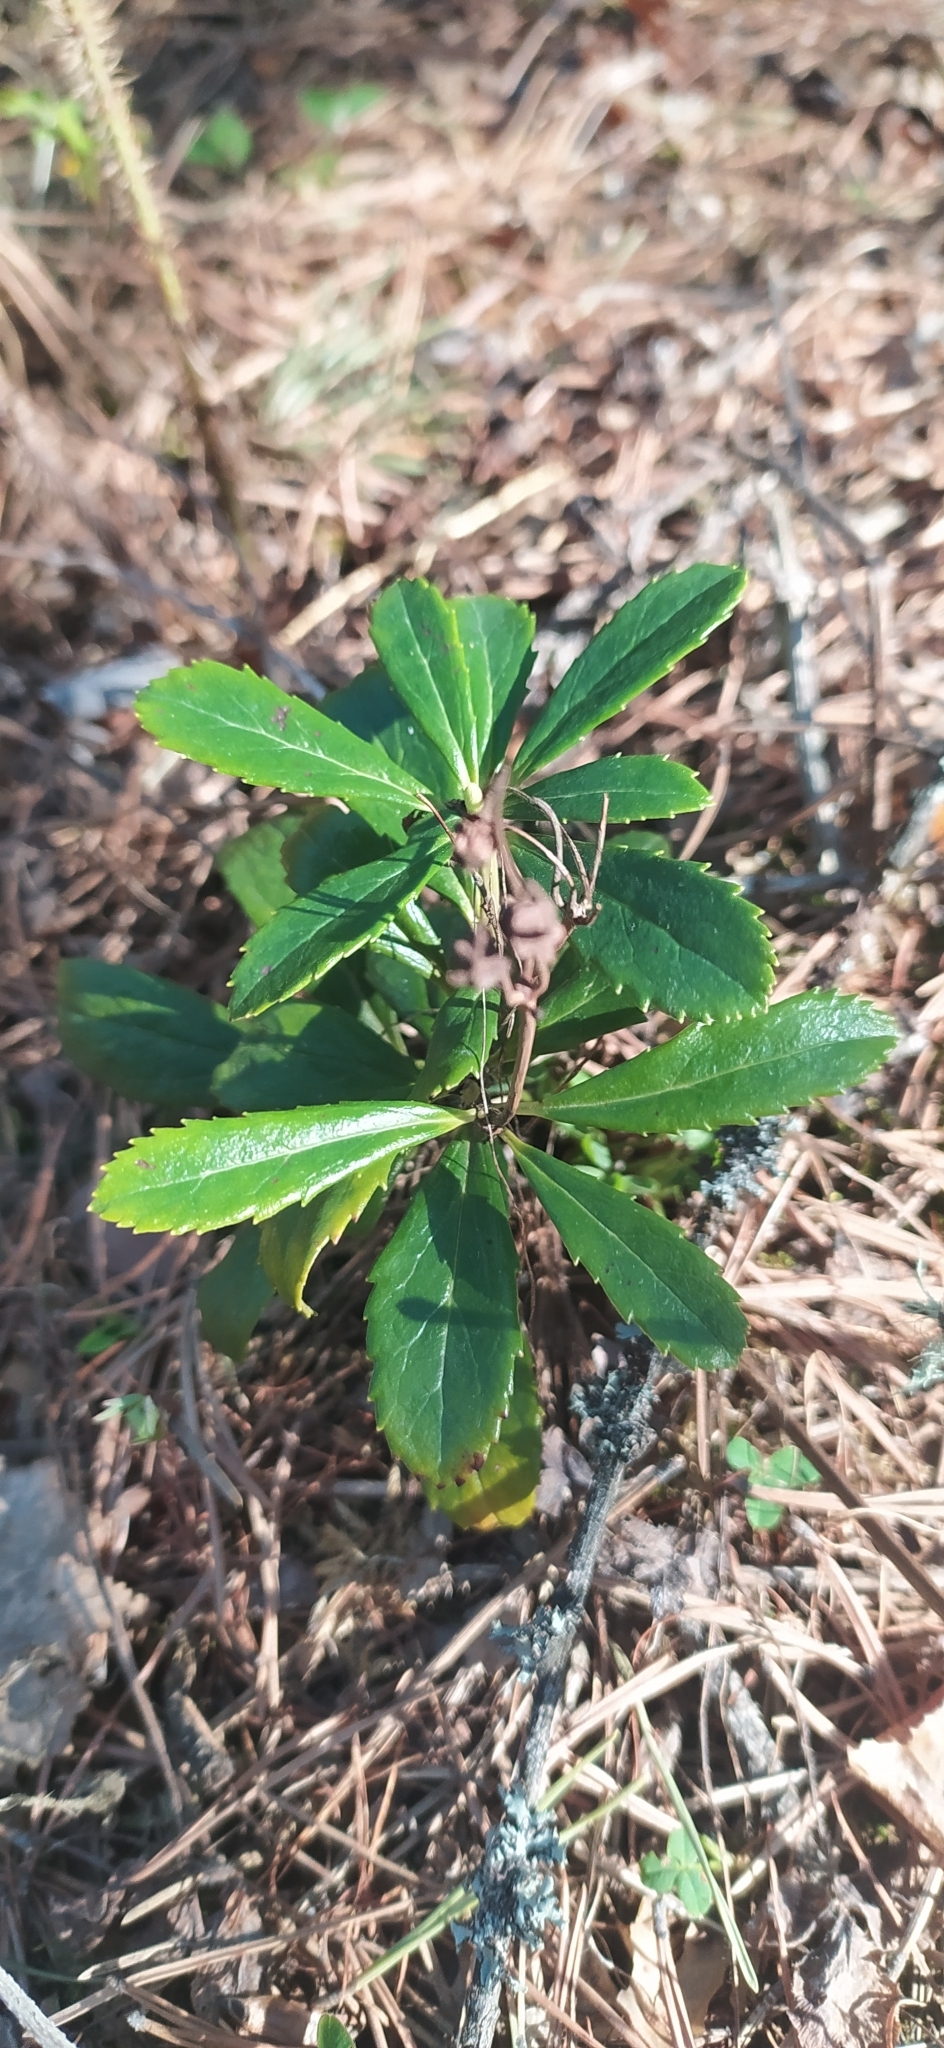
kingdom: Plantae
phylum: Tracheophyta
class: Magnoliopsida
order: Ericales
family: Ericaceae
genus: Chimaphila
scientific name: Chimaphila umbellata
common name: Pipsissewa
